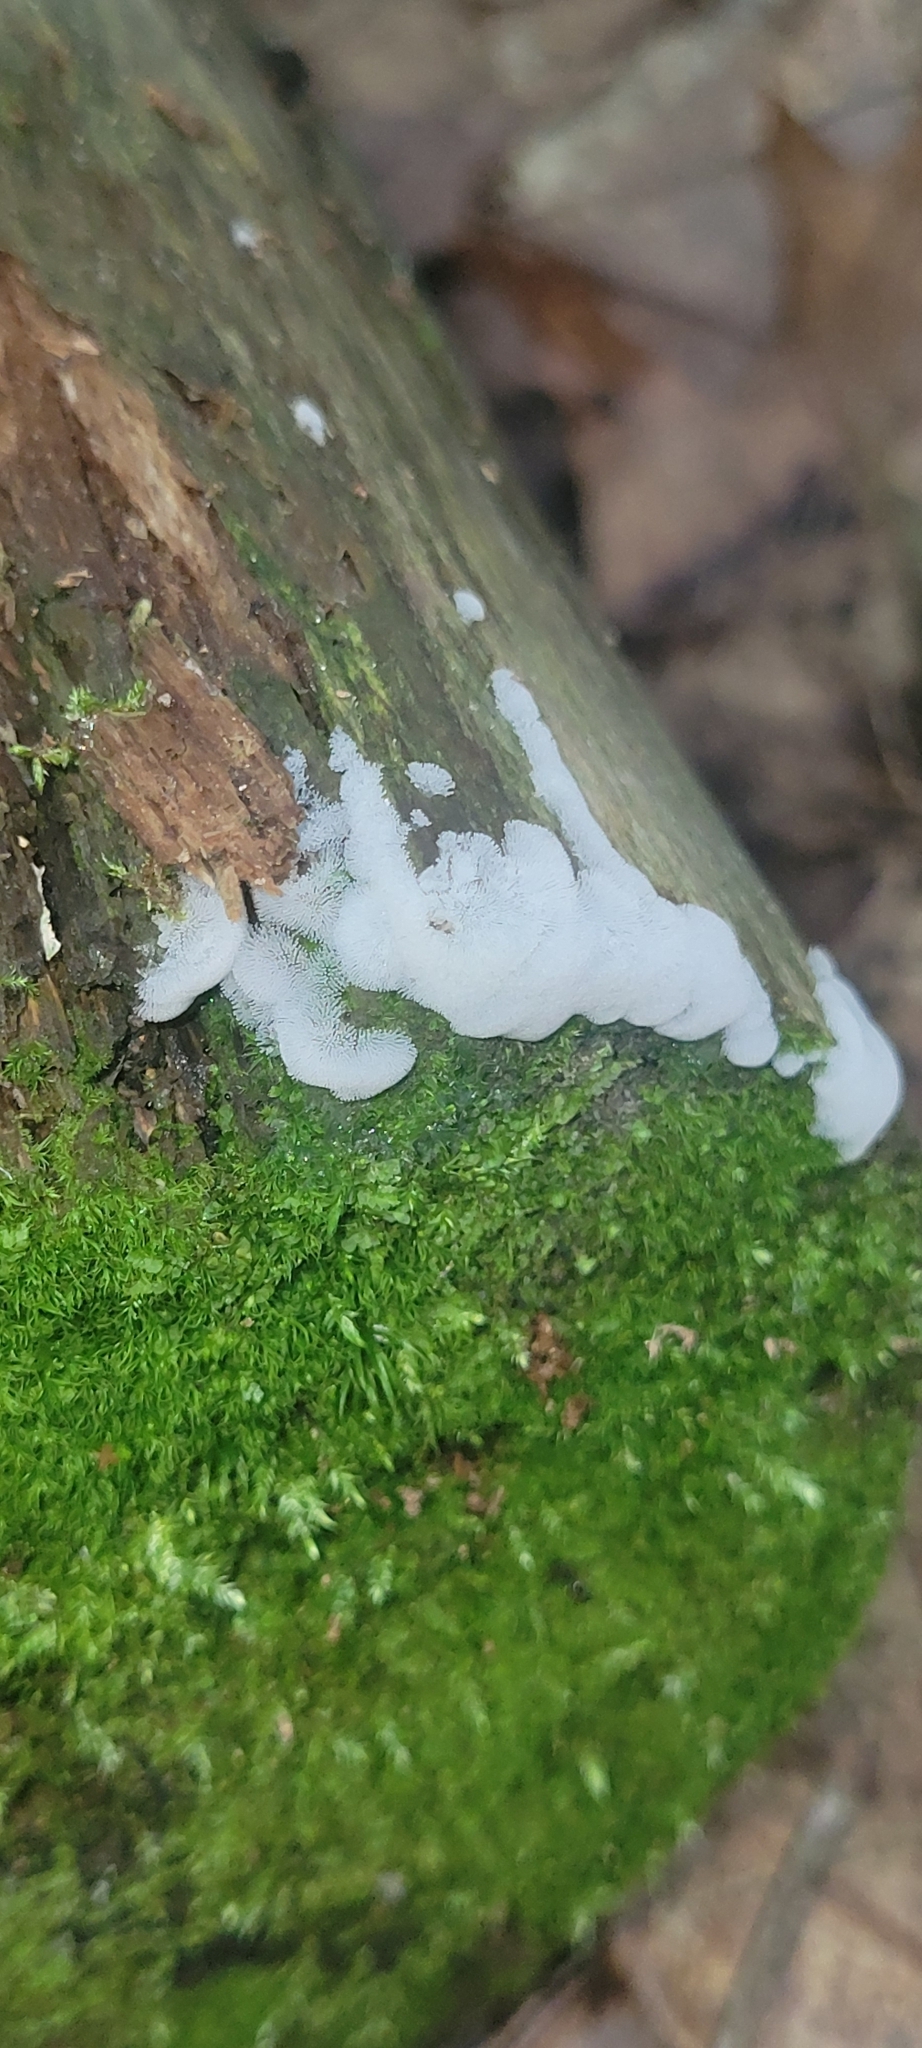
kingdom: Protozoa
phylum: Mycetozoa
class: Protosteliomycetes
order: Ceratiomyxales
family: Ceratiomyxaceae
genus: Ceratiomyxa
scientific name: Ceratiomyxa fruticulosa
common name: Honeycomb coral slime mold
